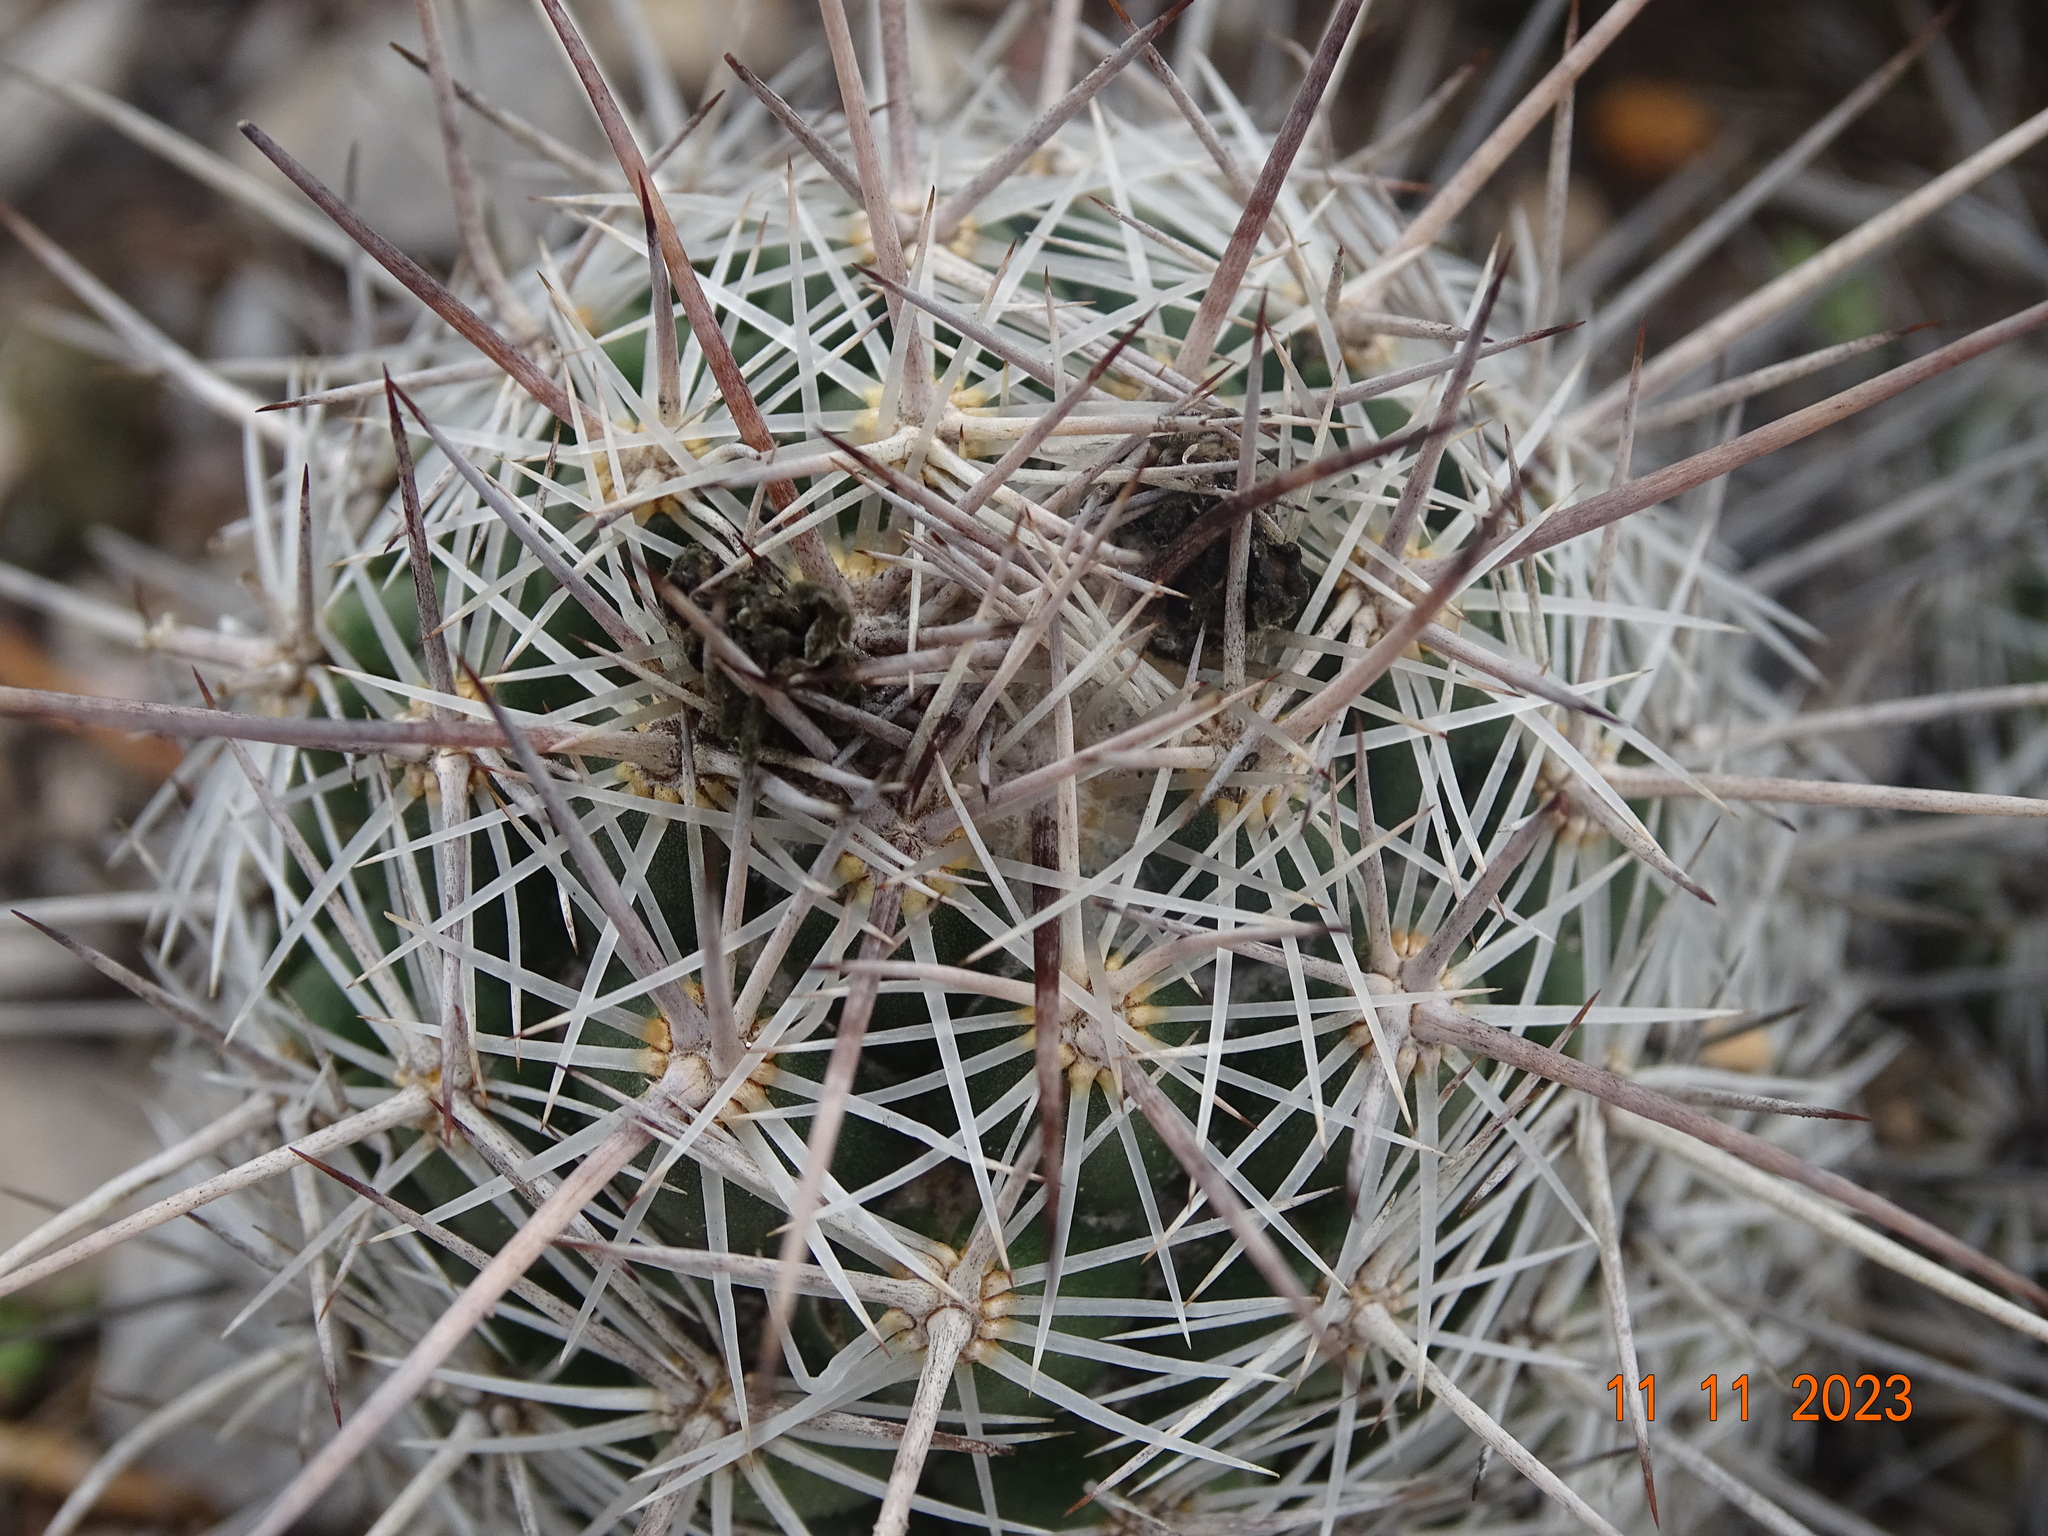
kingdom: Plantae
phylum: Tracheophyta
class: Magnoliopsida
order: Caryophyllales
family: Cactaceae
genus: Cochemiea
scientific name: Cochemiea conoidea
